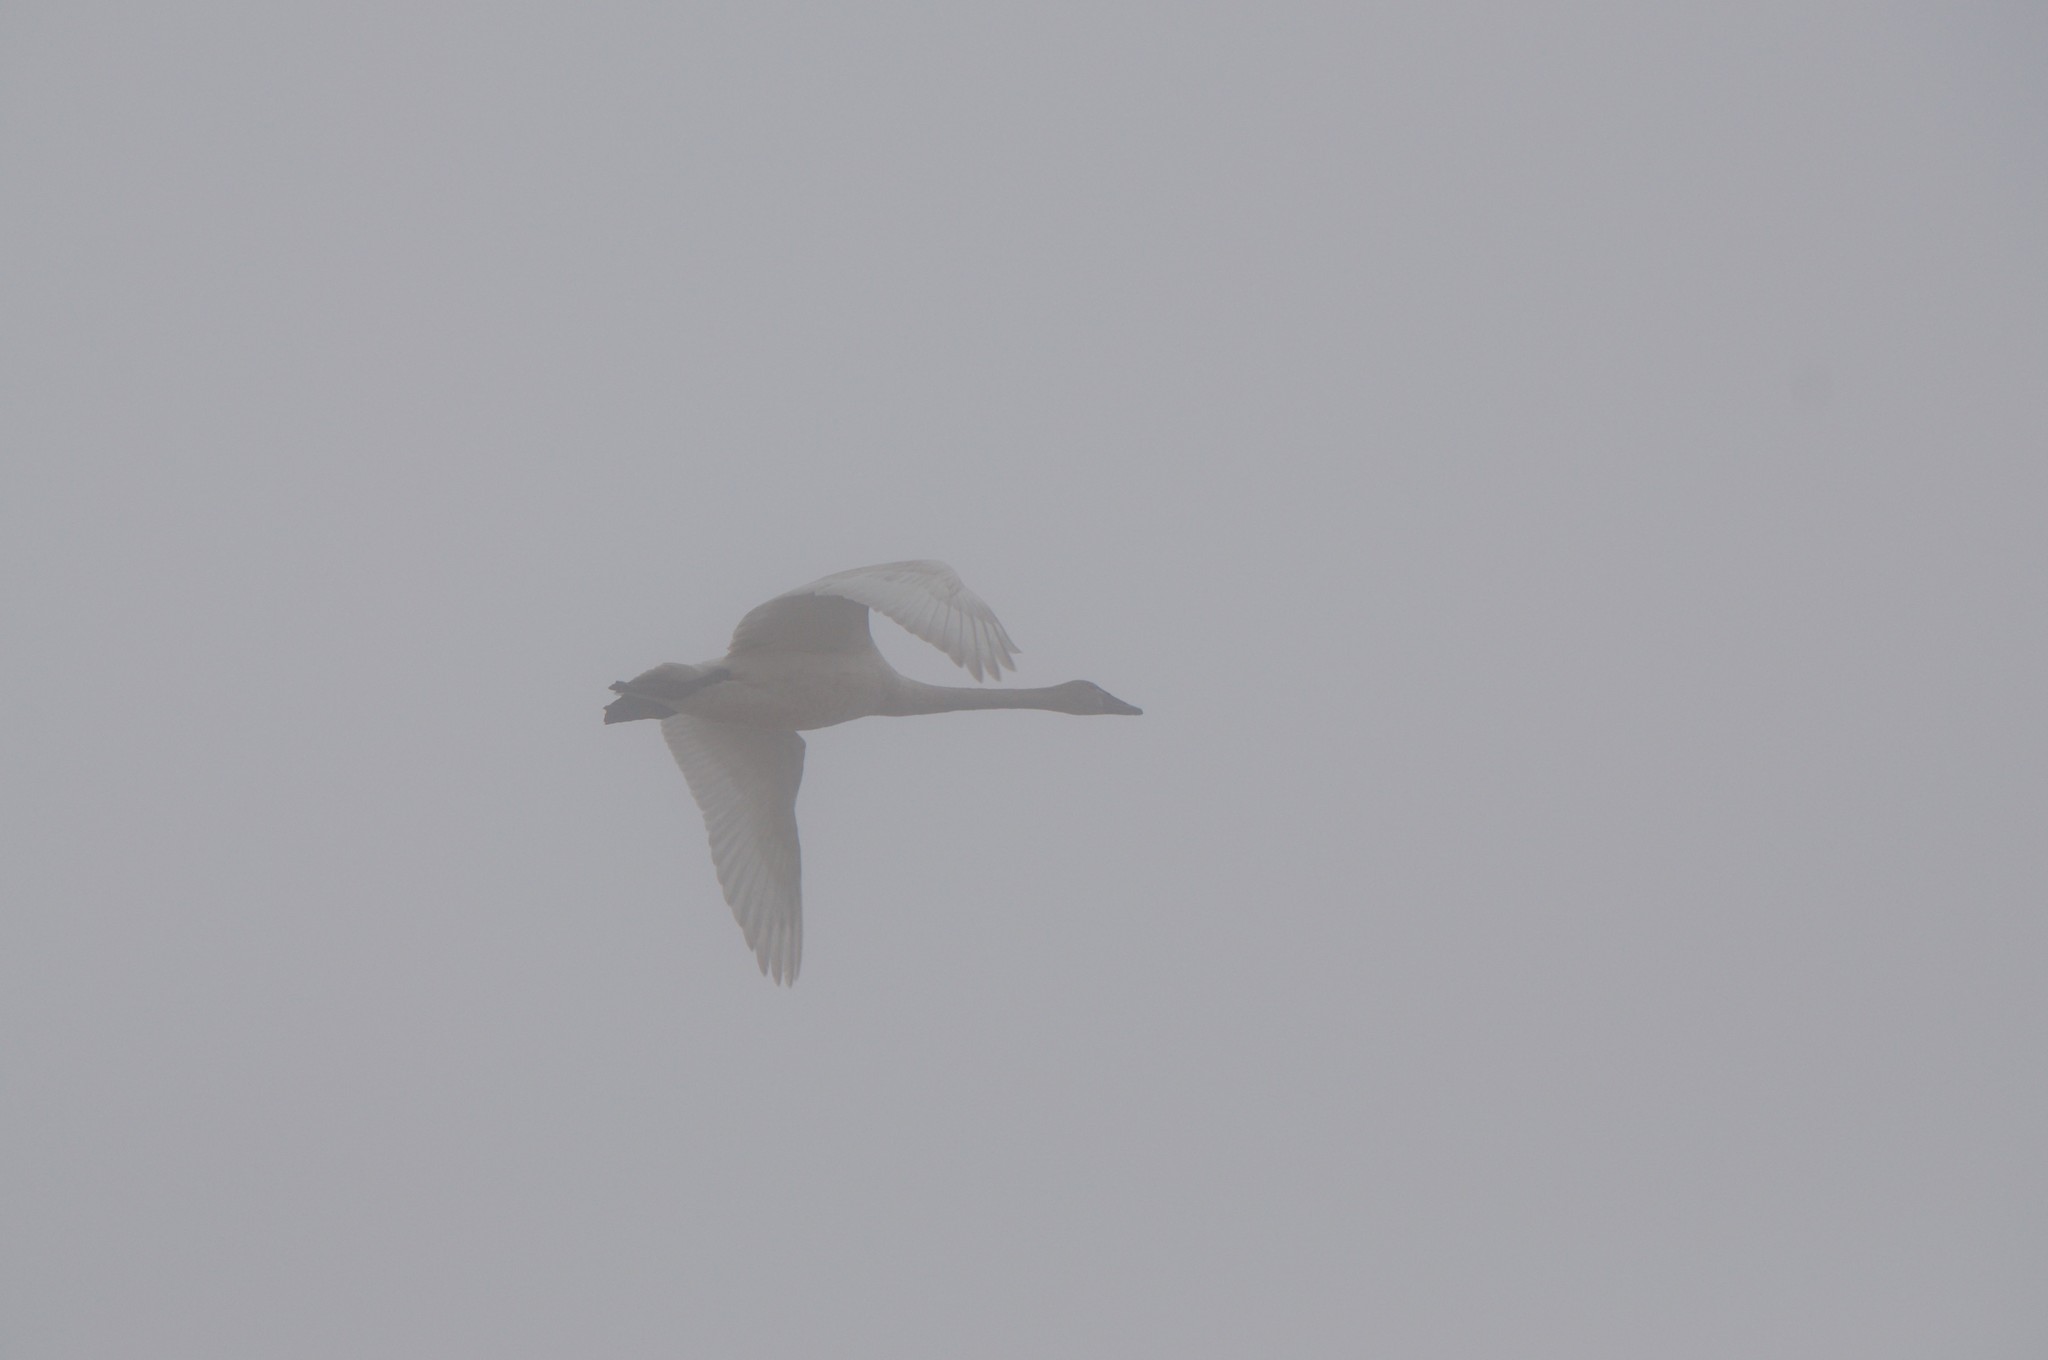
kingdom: Animalia
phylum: Chordata
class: Aves
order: Anseriformes
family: Anatidae
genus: Cygnus
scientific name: Cygnus columbianus
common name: Tundra swan
